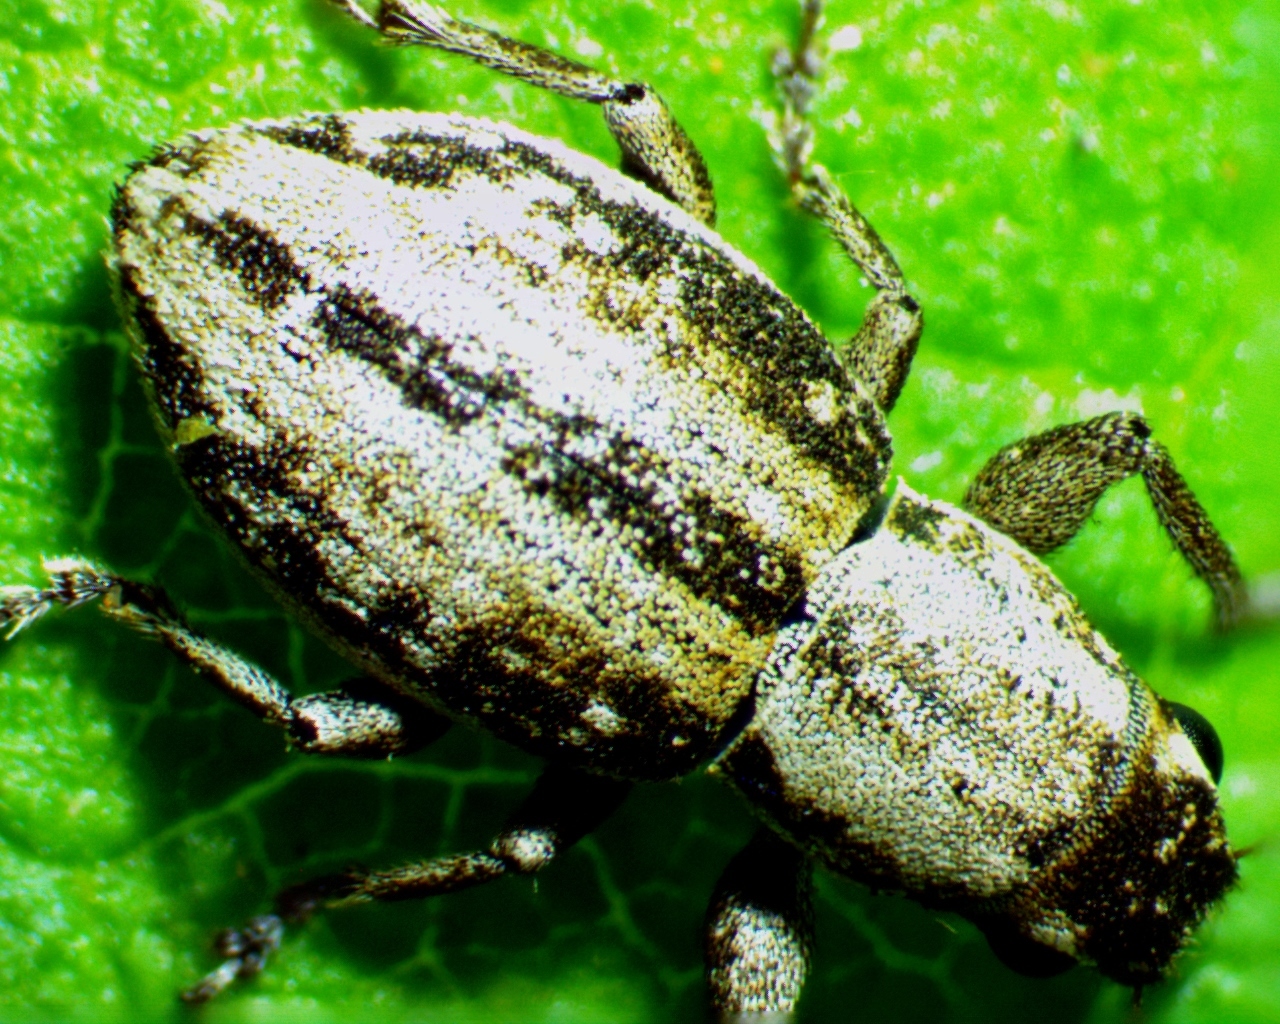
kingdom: Animalia
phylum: Arthropoda
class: Insecta
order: Coleoptera
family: Curculionidae
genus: Atrichonotus
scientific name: Atrichonotus taeniatulus
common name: Small lucerne weevil
